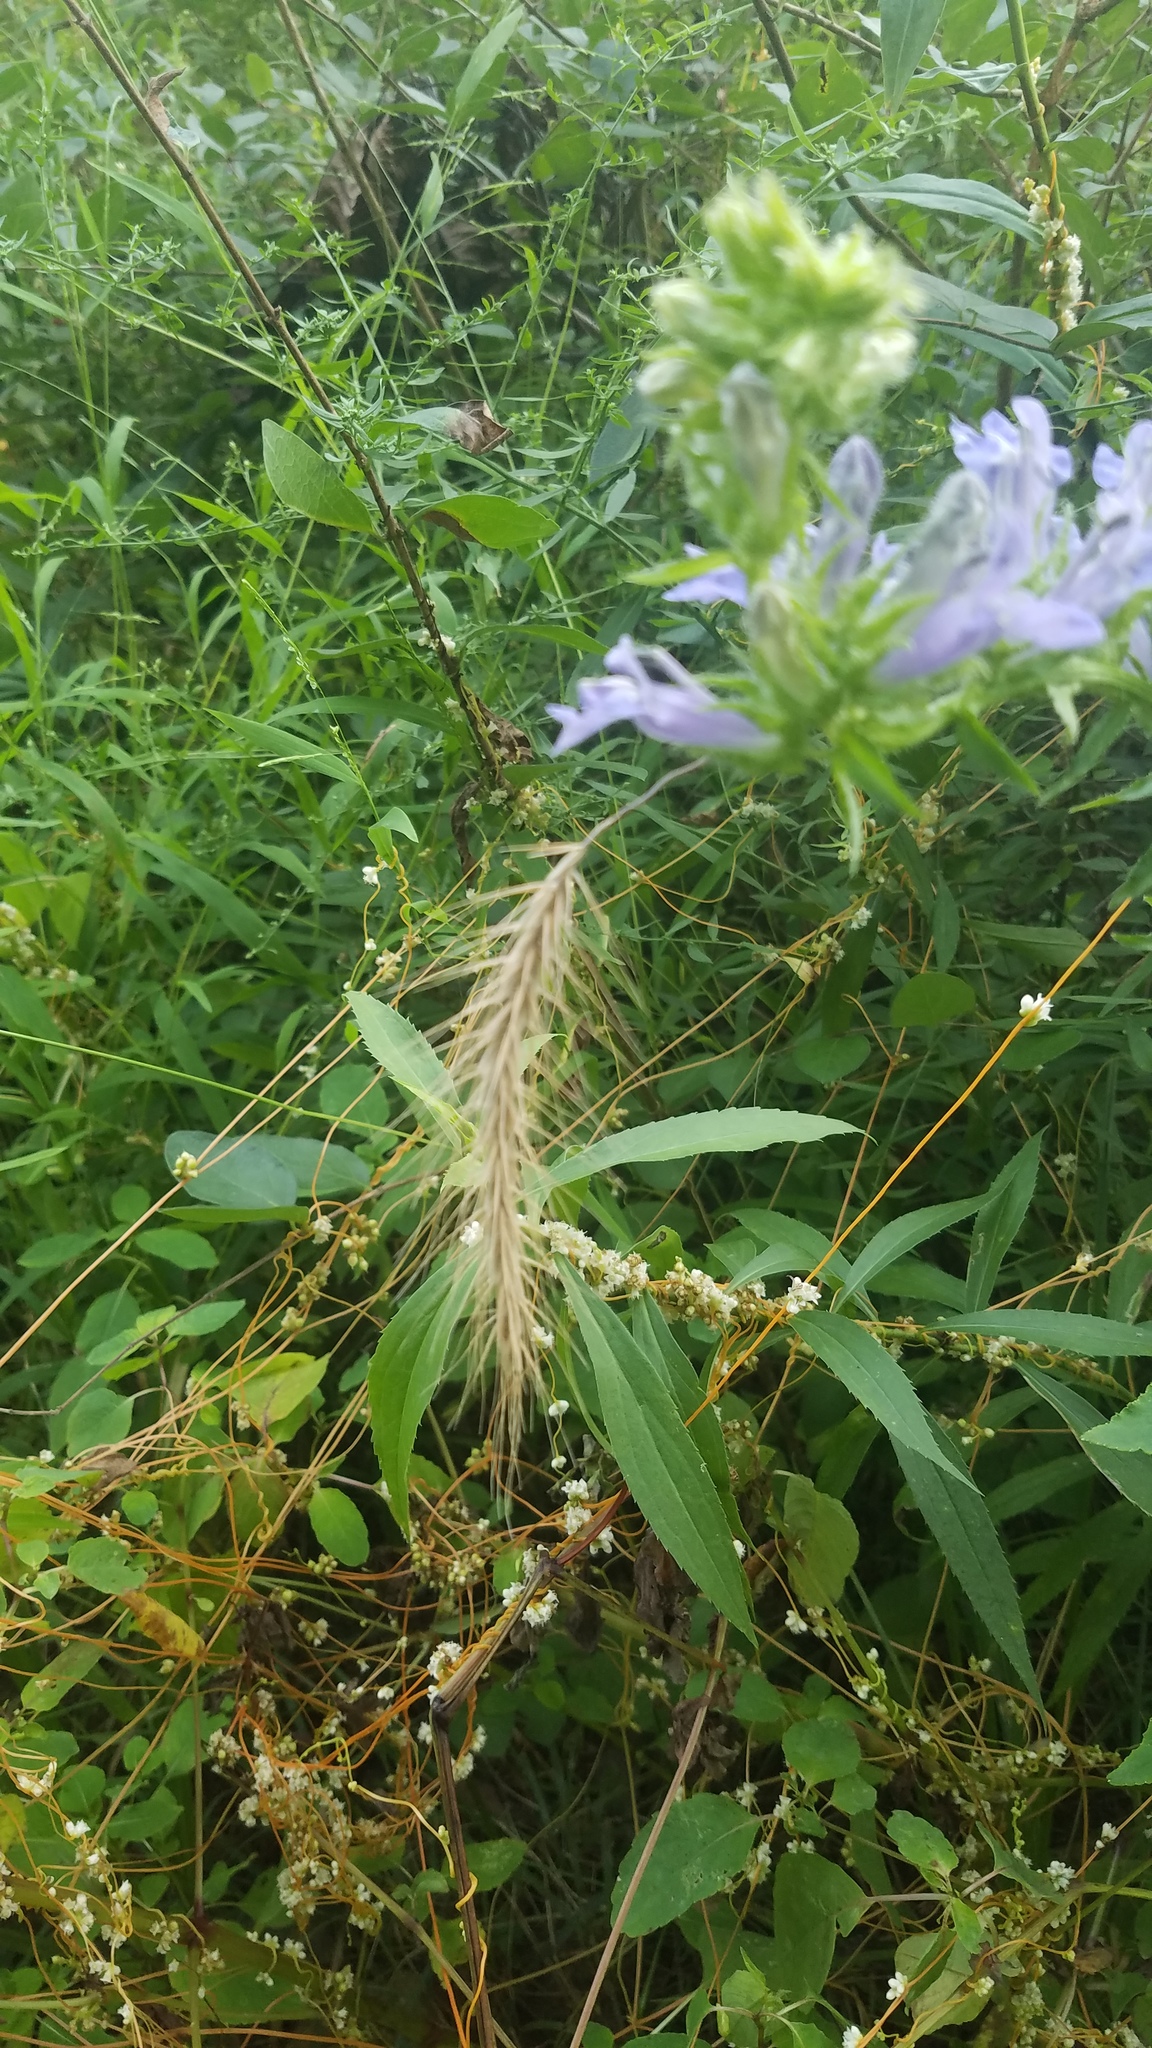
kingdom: Plantae
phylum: Tracheophyta
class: Liliopsida
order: Poales
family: Poaceae
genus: Elymus
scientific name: Elymus canadensis
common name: Canada wild rye
